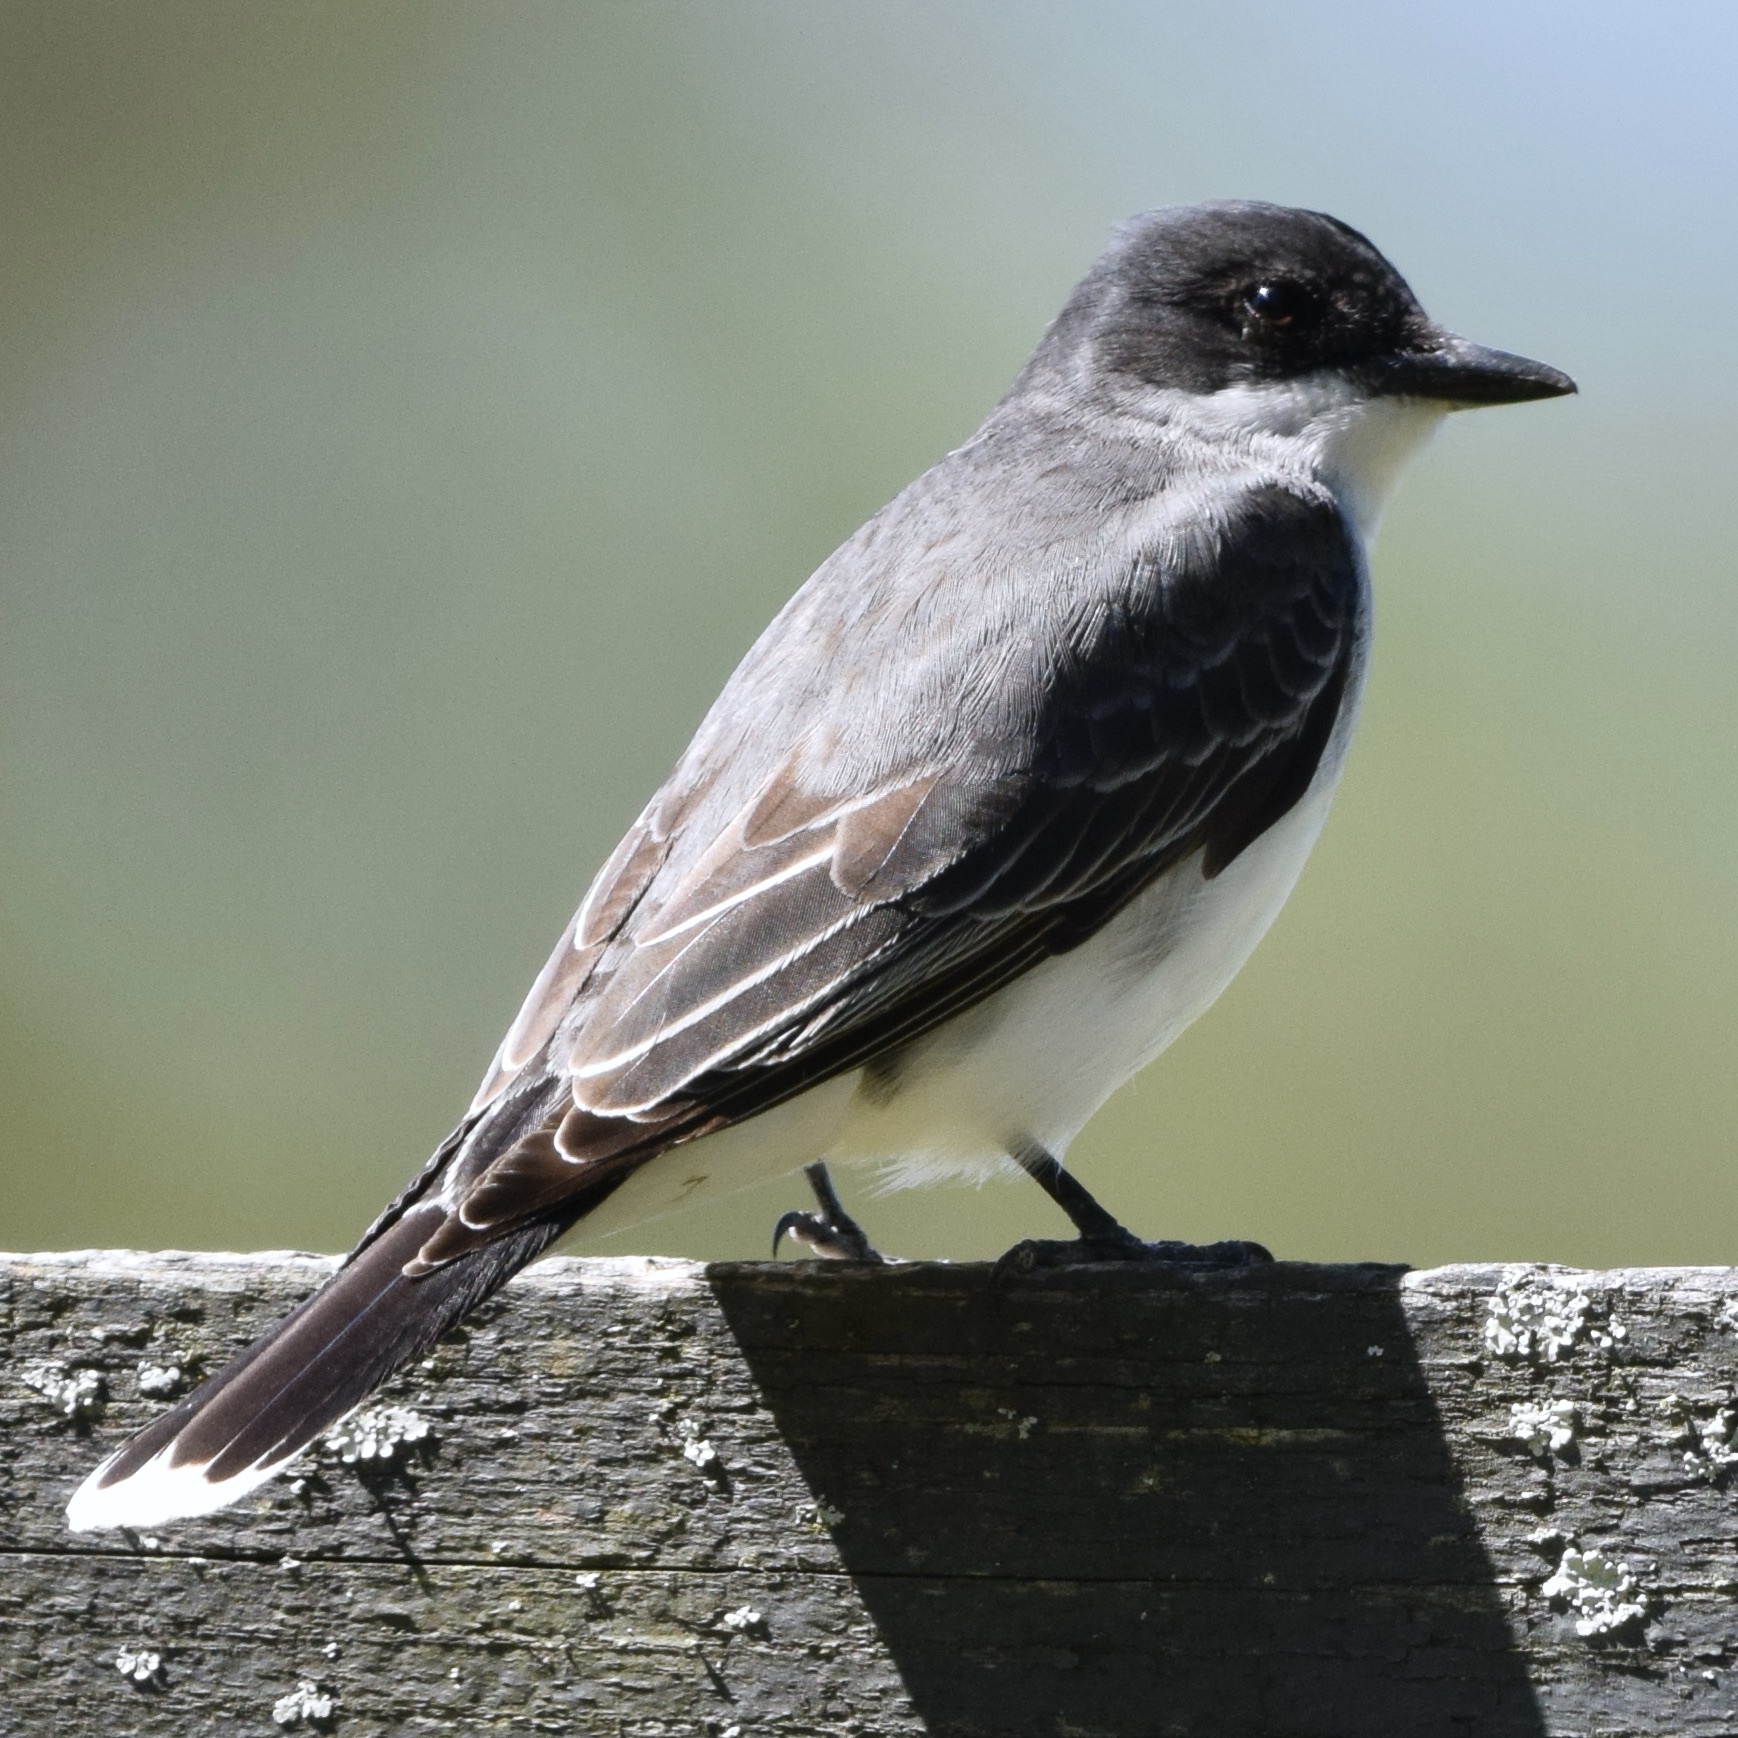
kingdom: Animalia
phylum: Chordata
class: Aves
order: Passeriformes
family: Tyrannidae
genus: Tyrannus
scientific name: Tyrannus tyrannus
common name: Eastern kingbird
